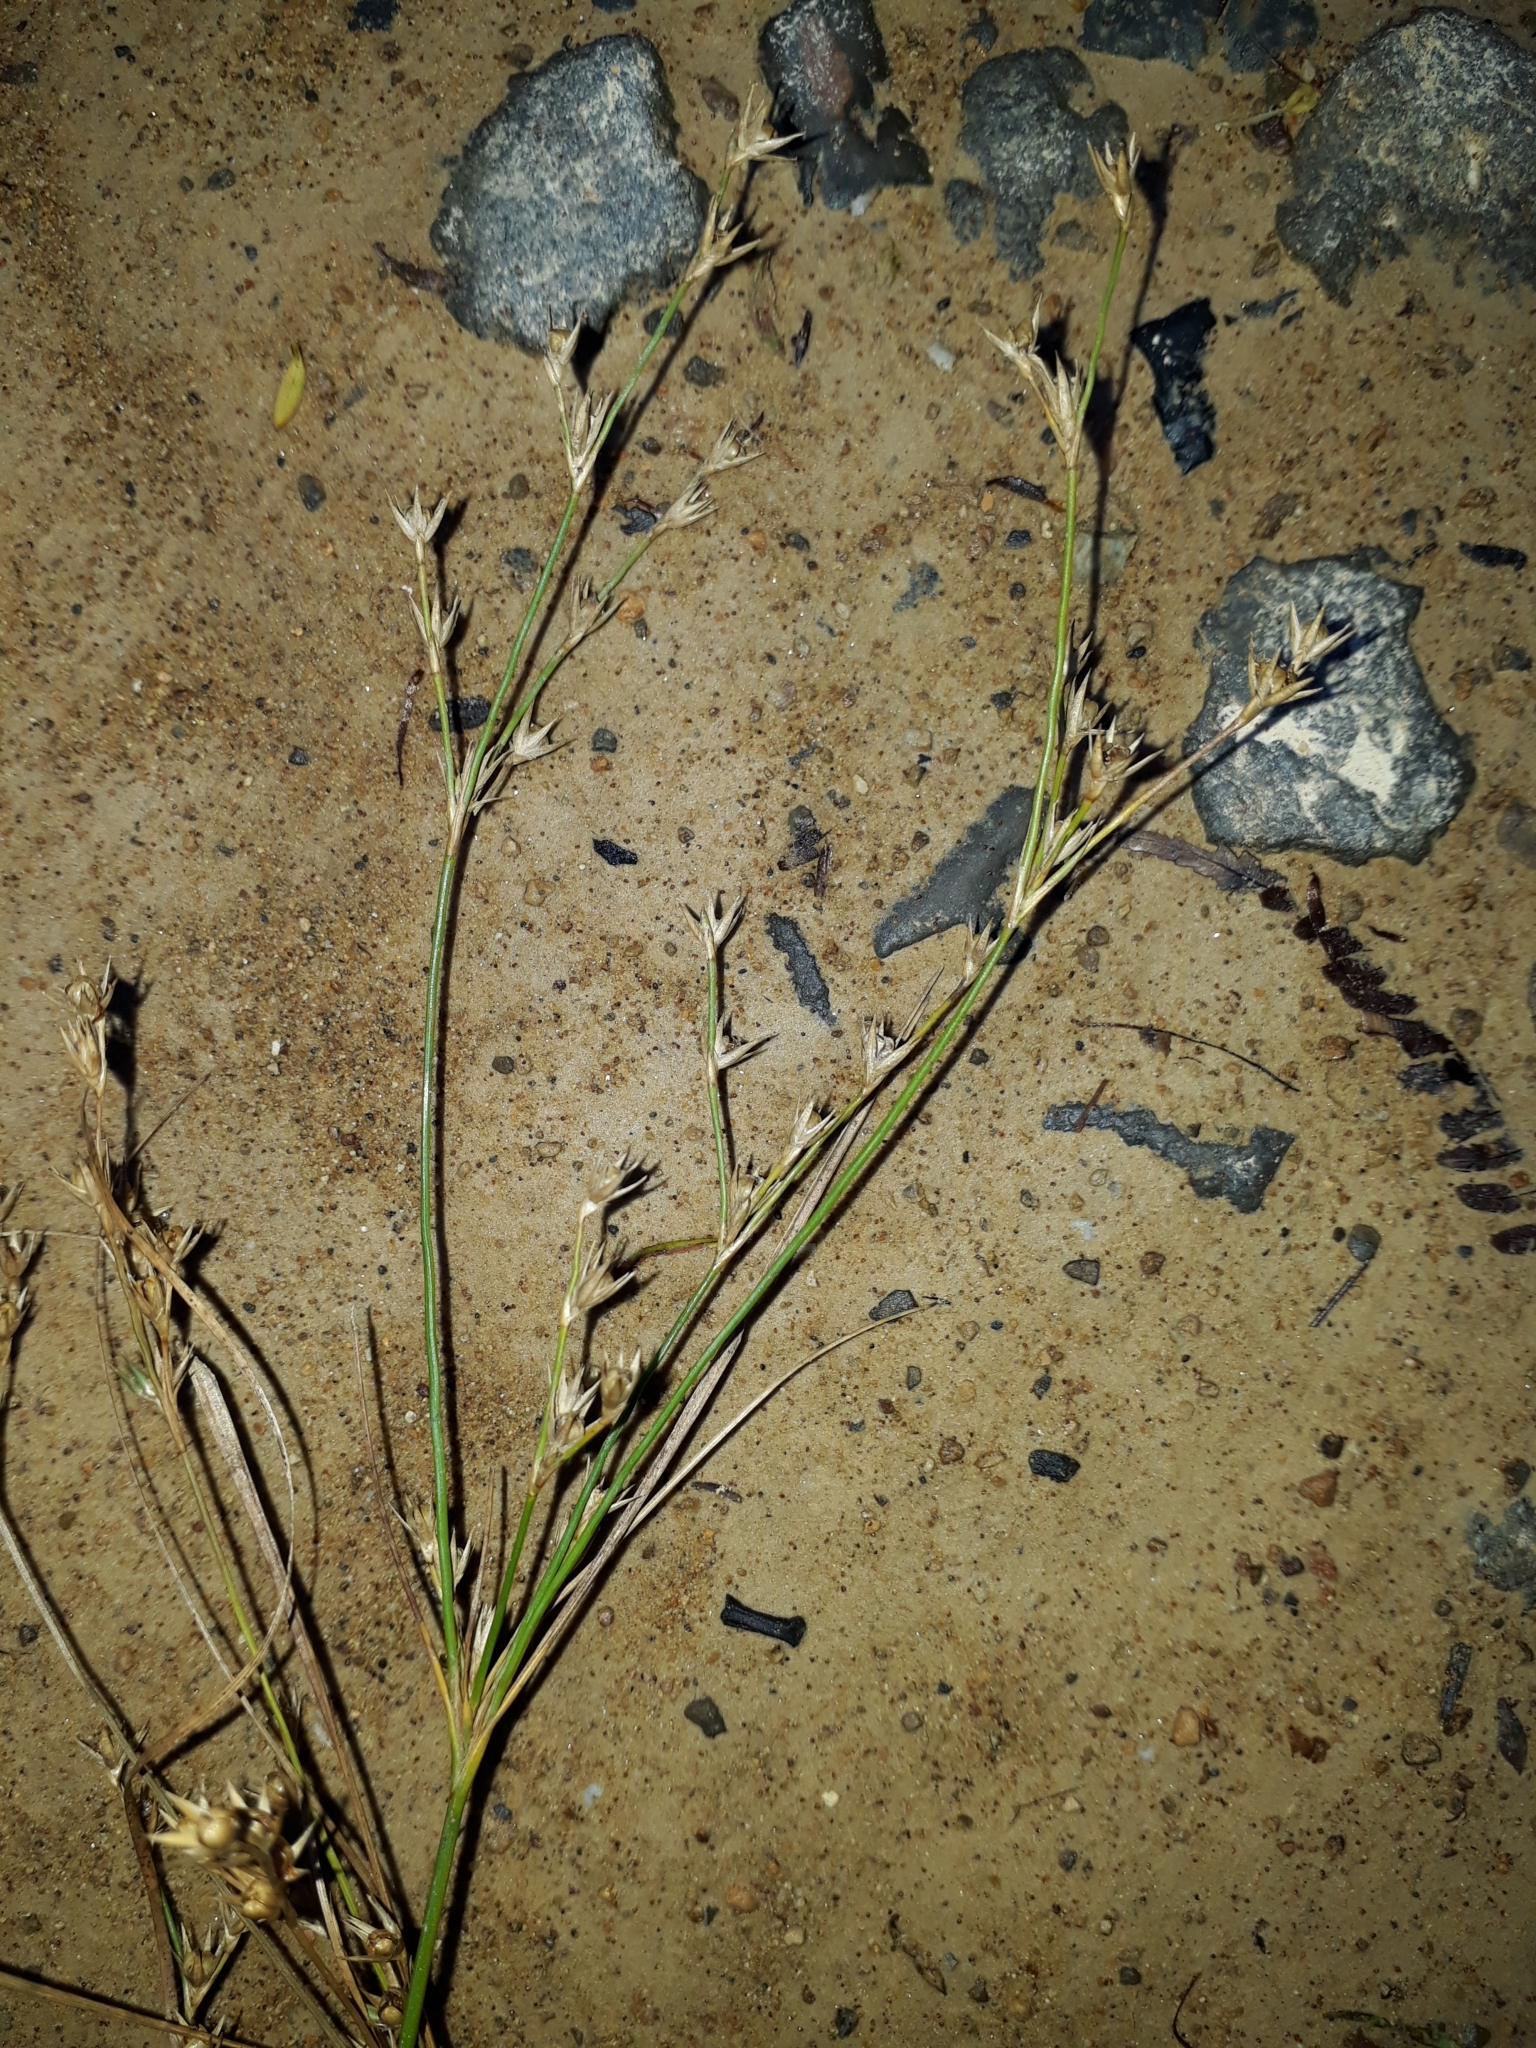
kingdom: Plantae
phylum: Tracheophyta
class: Liliopsida
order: Poales
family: Juncaceae
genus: Juncus
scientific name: Juncus anthelatus
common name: Giant path rush
